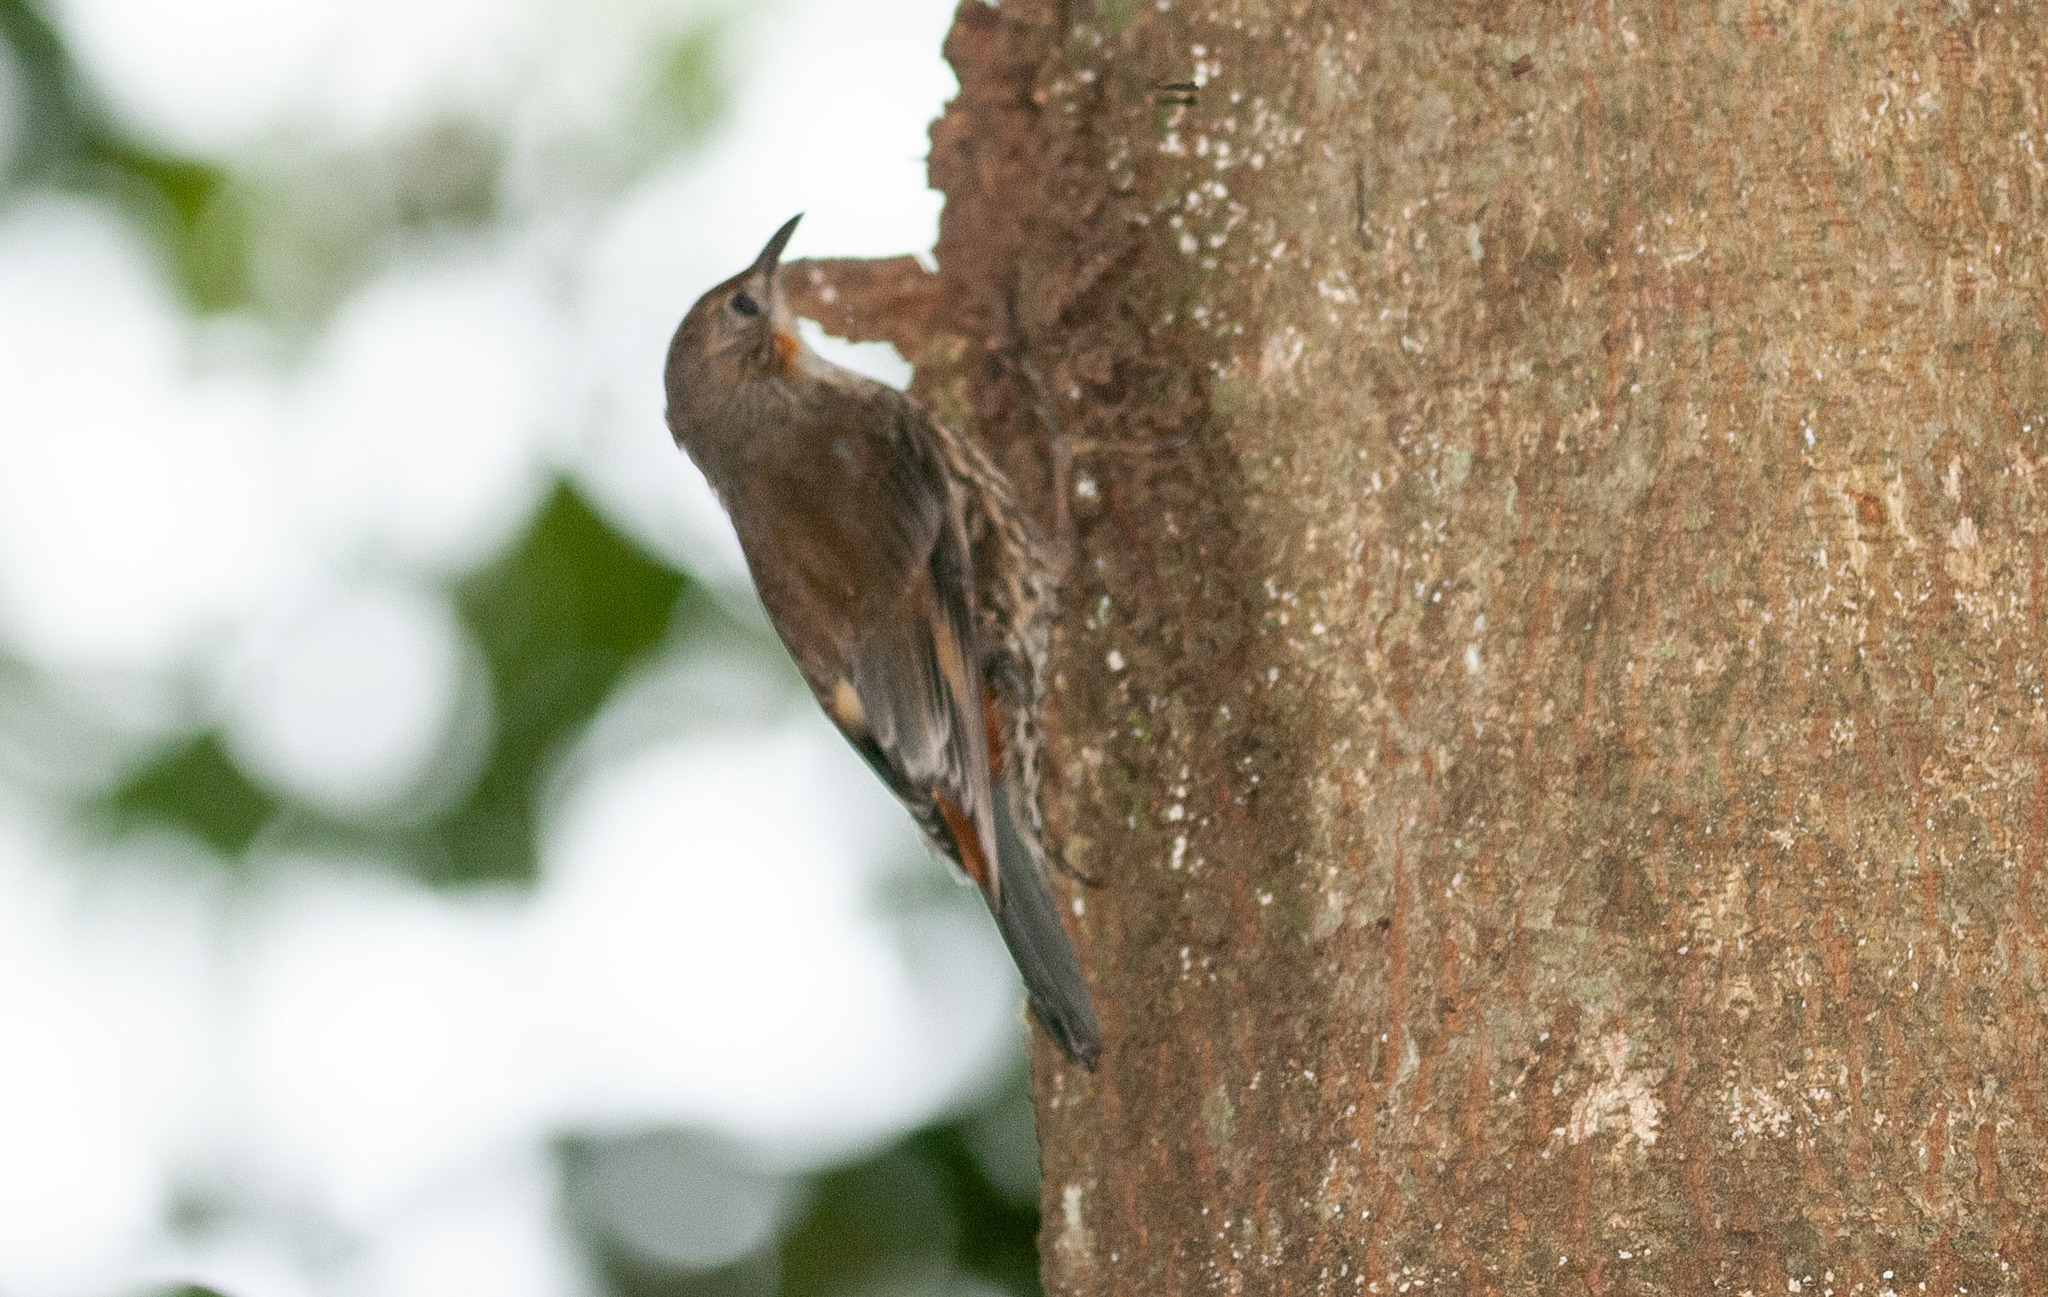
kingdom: Animalia
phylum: Chordata
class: Aves
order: Passeriformes
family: Climacteridae
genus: Cormobates
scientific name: Cormobates leucophaea
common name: White-throated treecreeper
